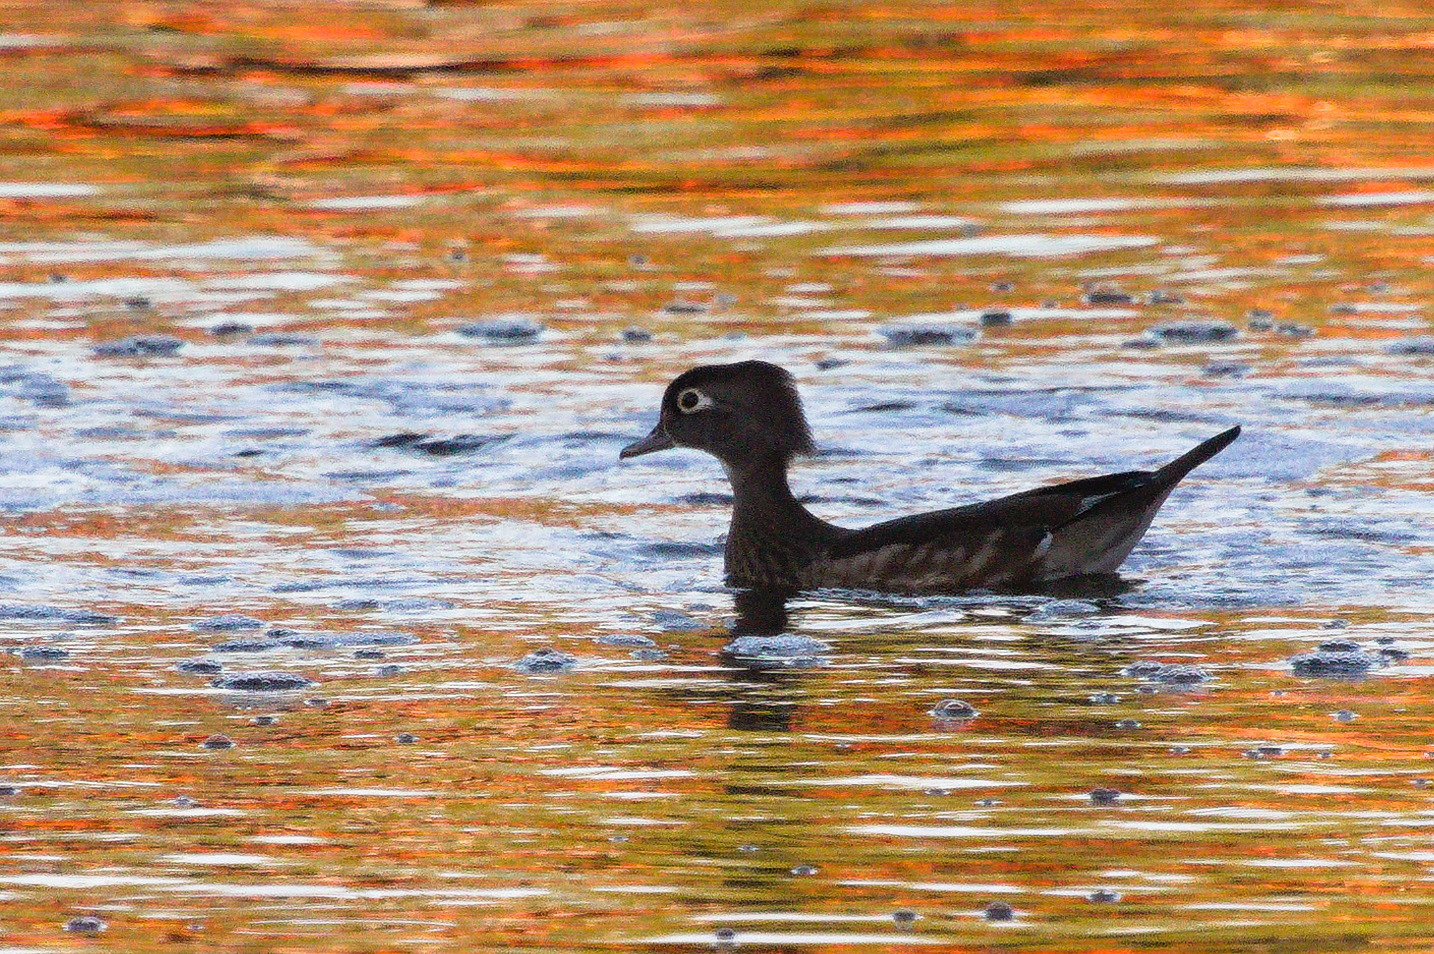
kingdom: Animalia
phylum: Chordata
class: Aves
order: Anseriformes
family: Anatidae
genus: Aix
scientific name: Aix sponsa
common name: Wood duck
